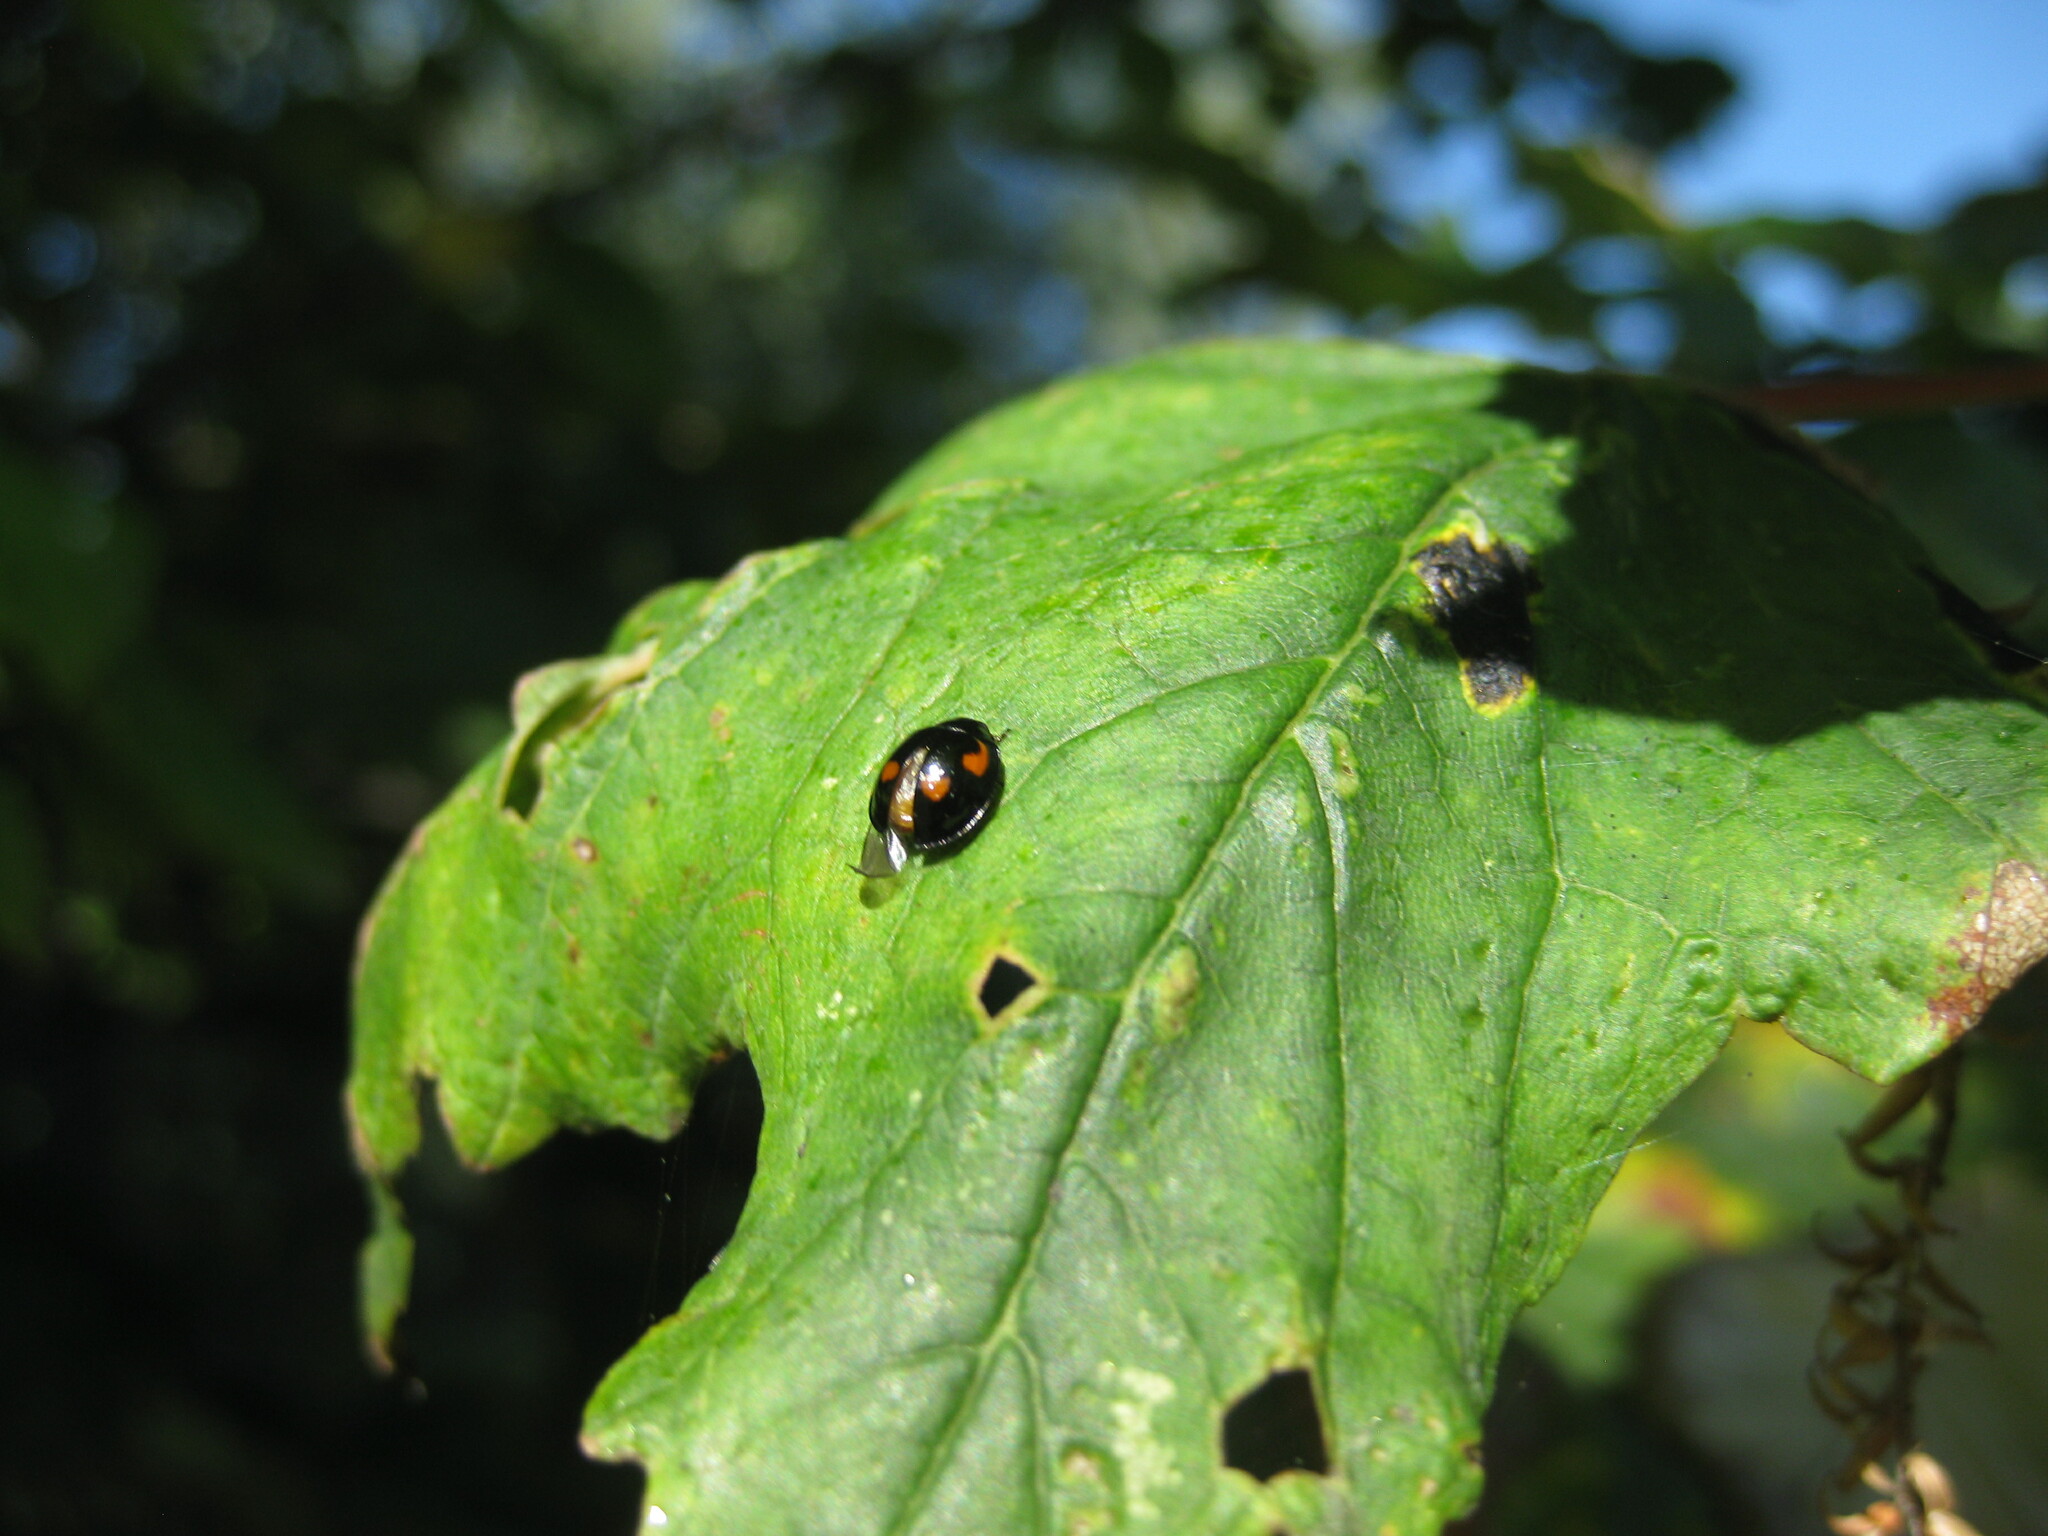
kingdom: Animalia
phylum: Arthropoda
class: Insecta
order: Coleoptera
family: Coccinellidae
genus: Brumus
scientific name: Brumus quadripustulatus
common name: Ladybird beetle
